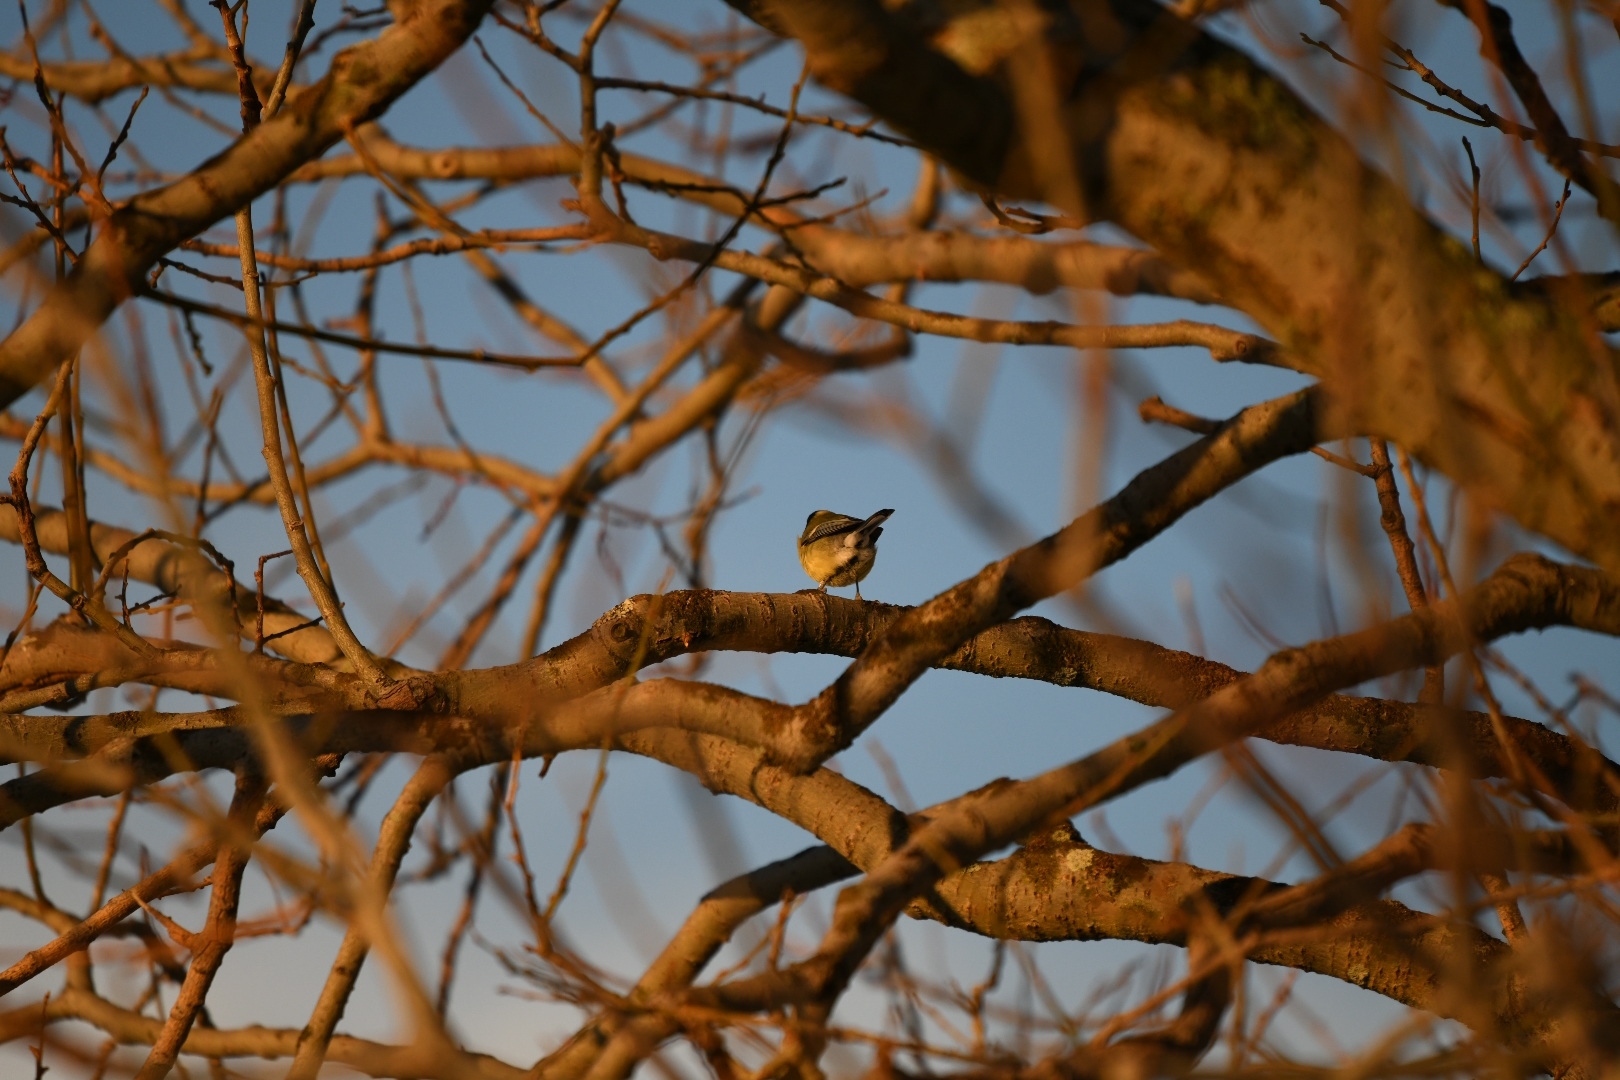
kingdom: Animalia
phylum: Chordata
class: Aves
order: Passeriformes
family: Paridae
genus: Parus
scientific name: Parus major
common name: Great tit
